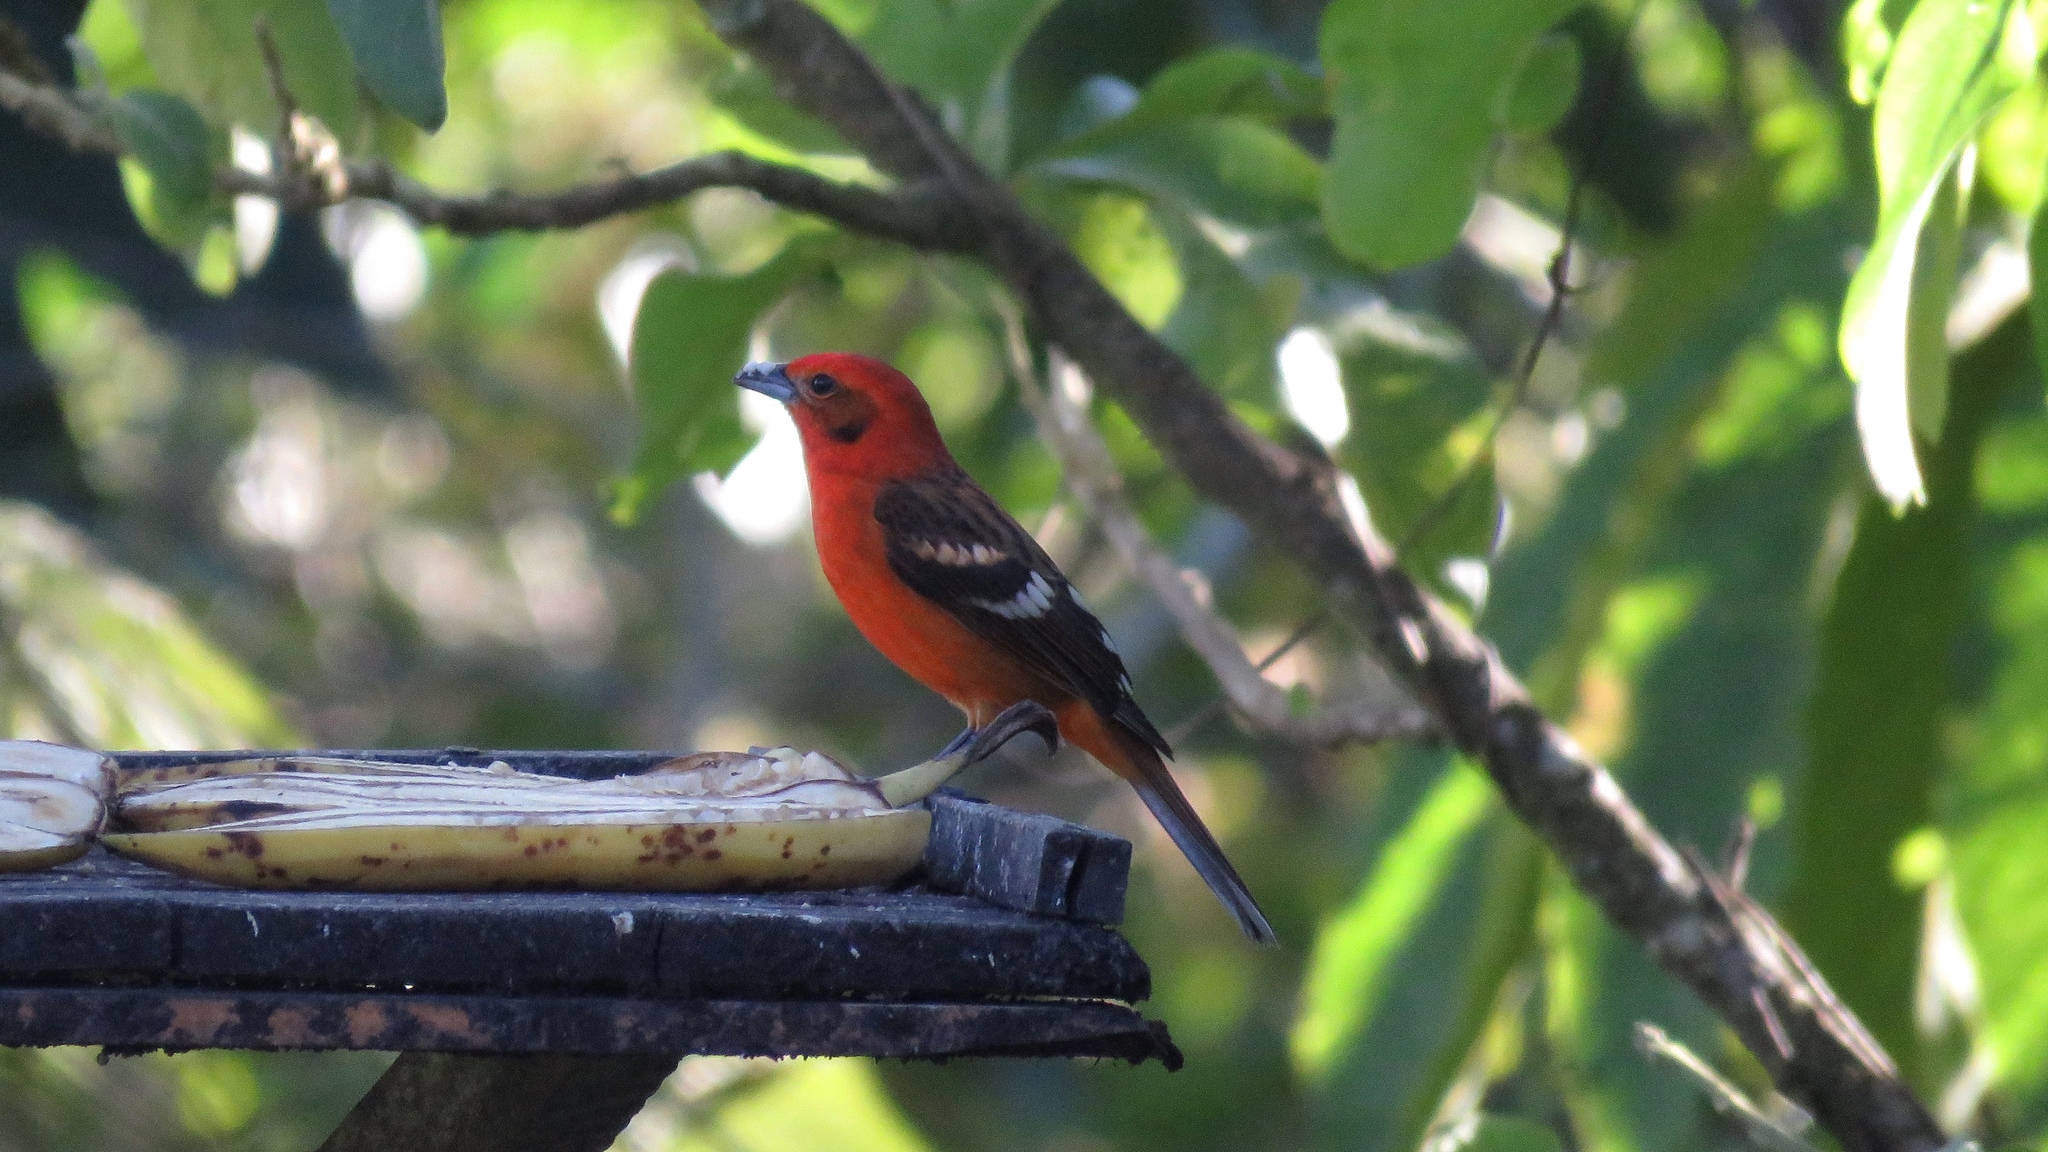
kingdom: Animalia
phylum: Chordata
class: Aves
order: Passeriformes
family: Cardinalidae
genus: Piranga
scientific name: Piranga bidentata
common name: Flame-colored tanager
